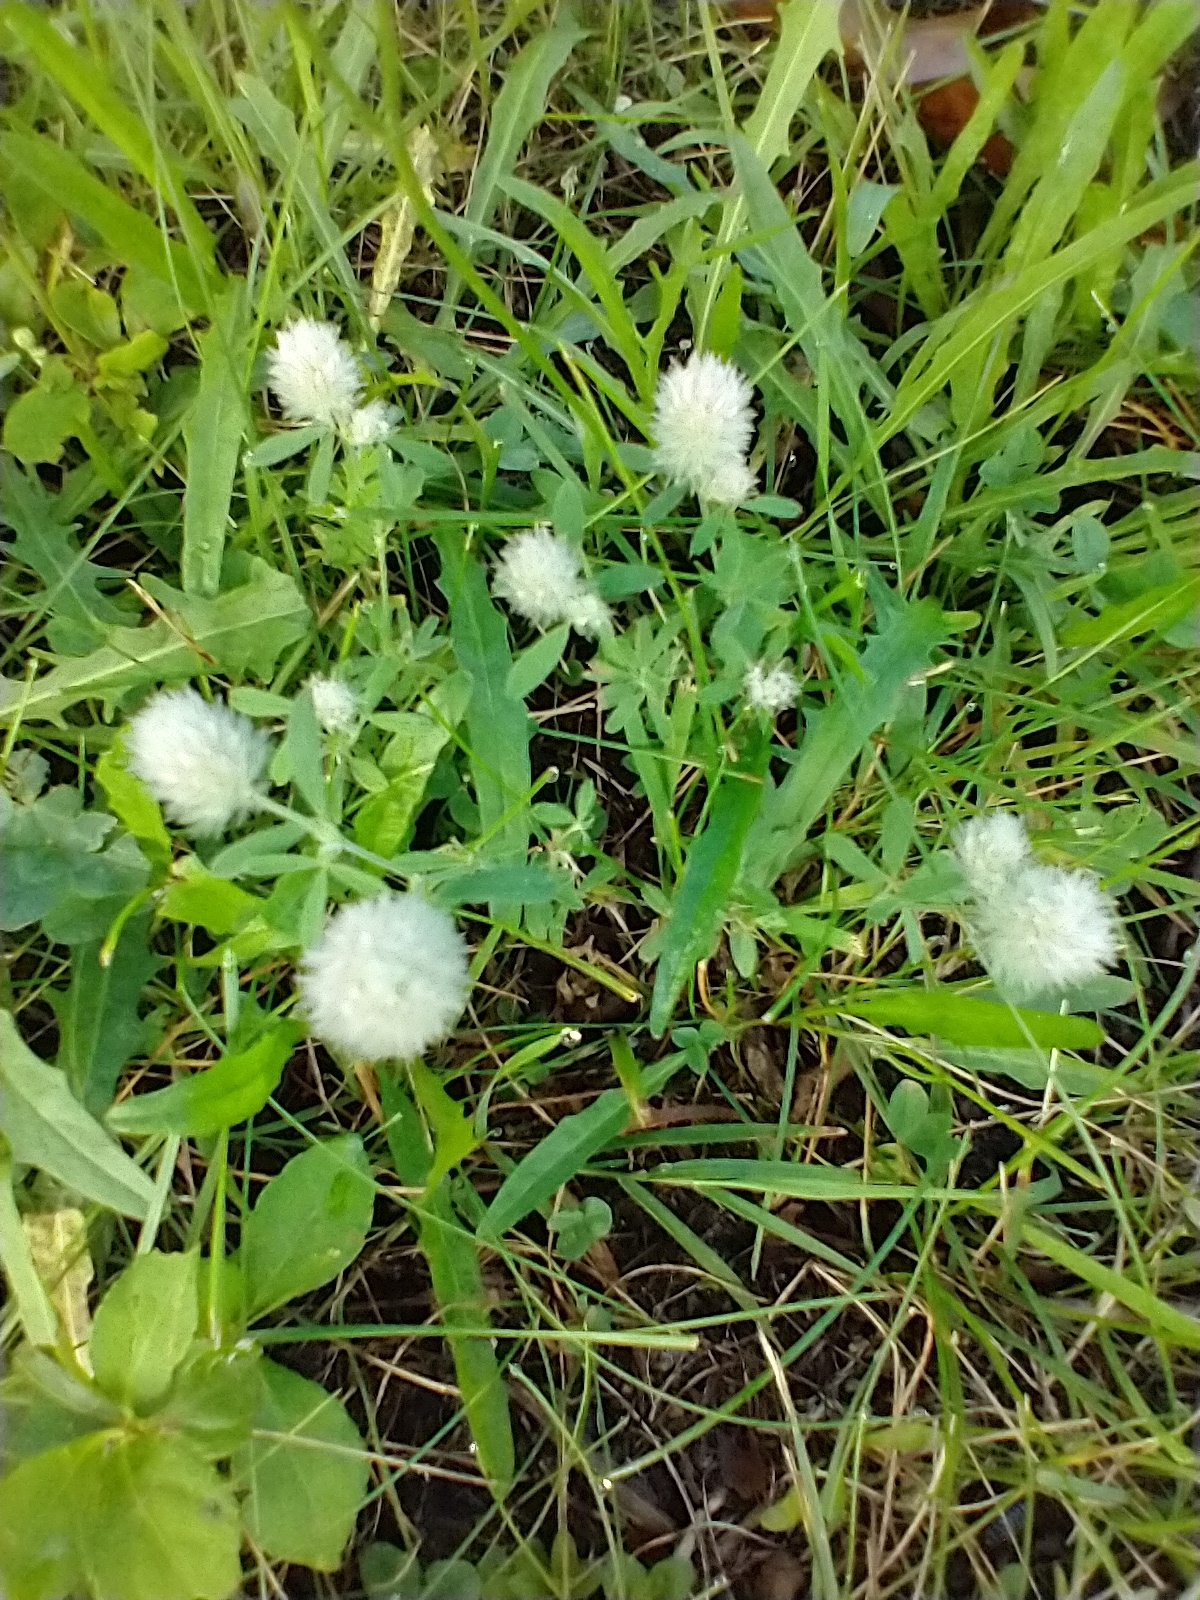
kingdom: Plantae
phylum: Tracheophyta
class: Magnoliopsida
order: Fabales
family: Fabaceae
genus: Trifolium
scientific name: Trifolium arvense
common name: Hare's-foot clover
